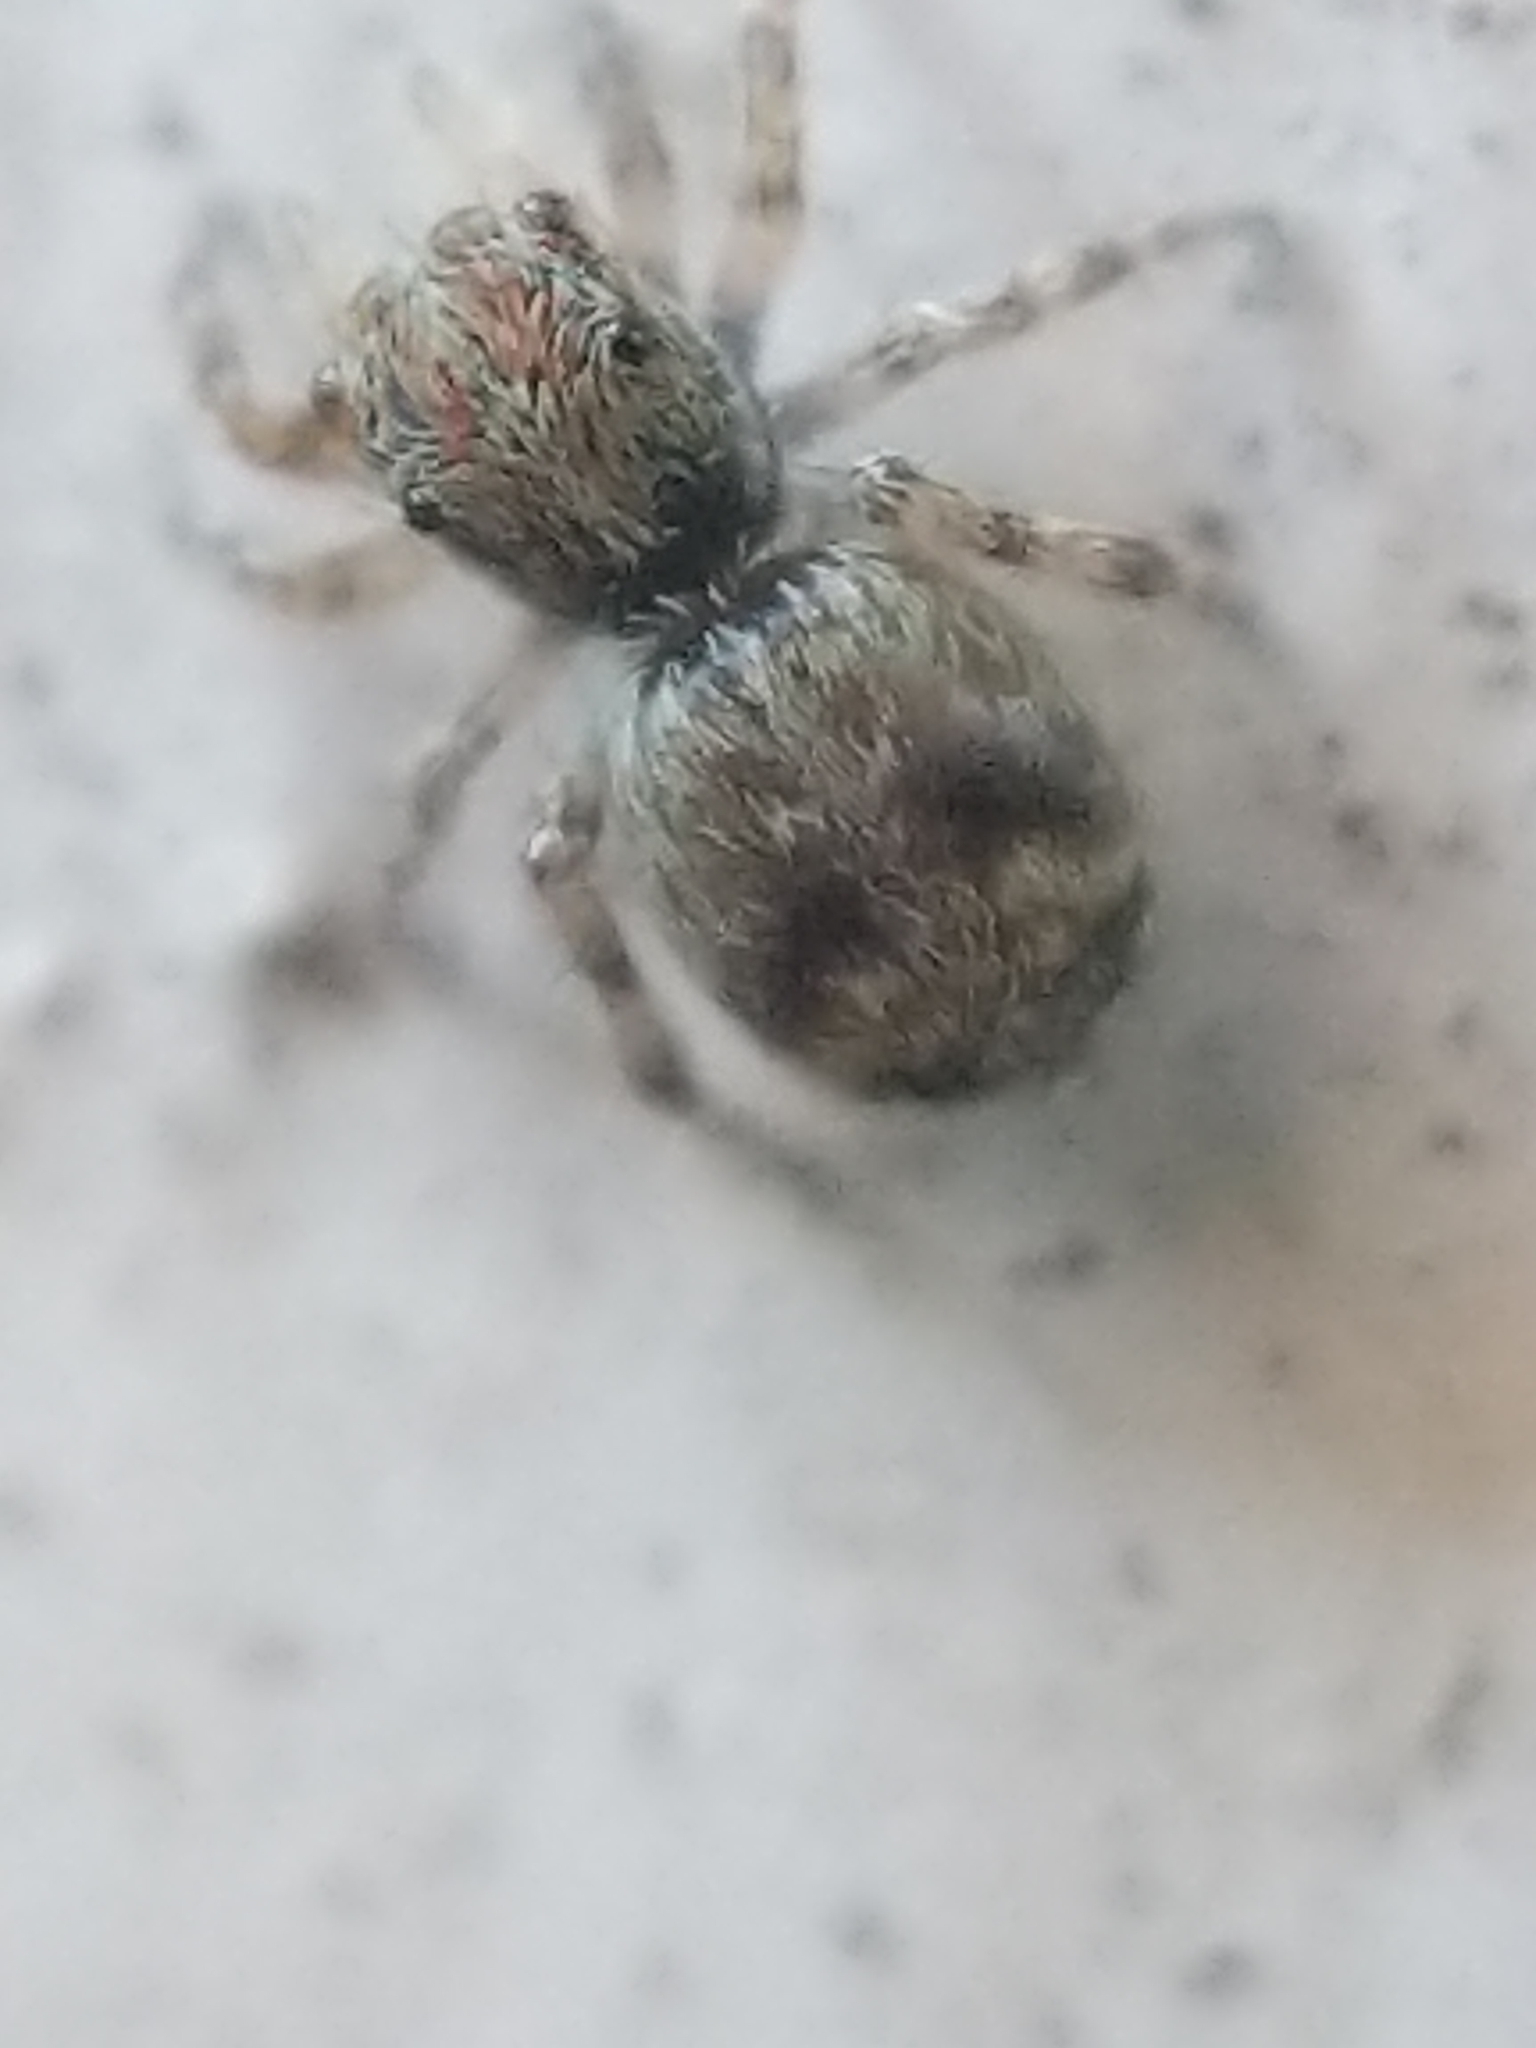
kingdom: Animalia
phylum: Arthropoda
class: Arachnida
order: Araneae
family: Salticidae
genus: Attulus
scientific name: Attulus fasciger
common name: Asiatic wall jumping spider
